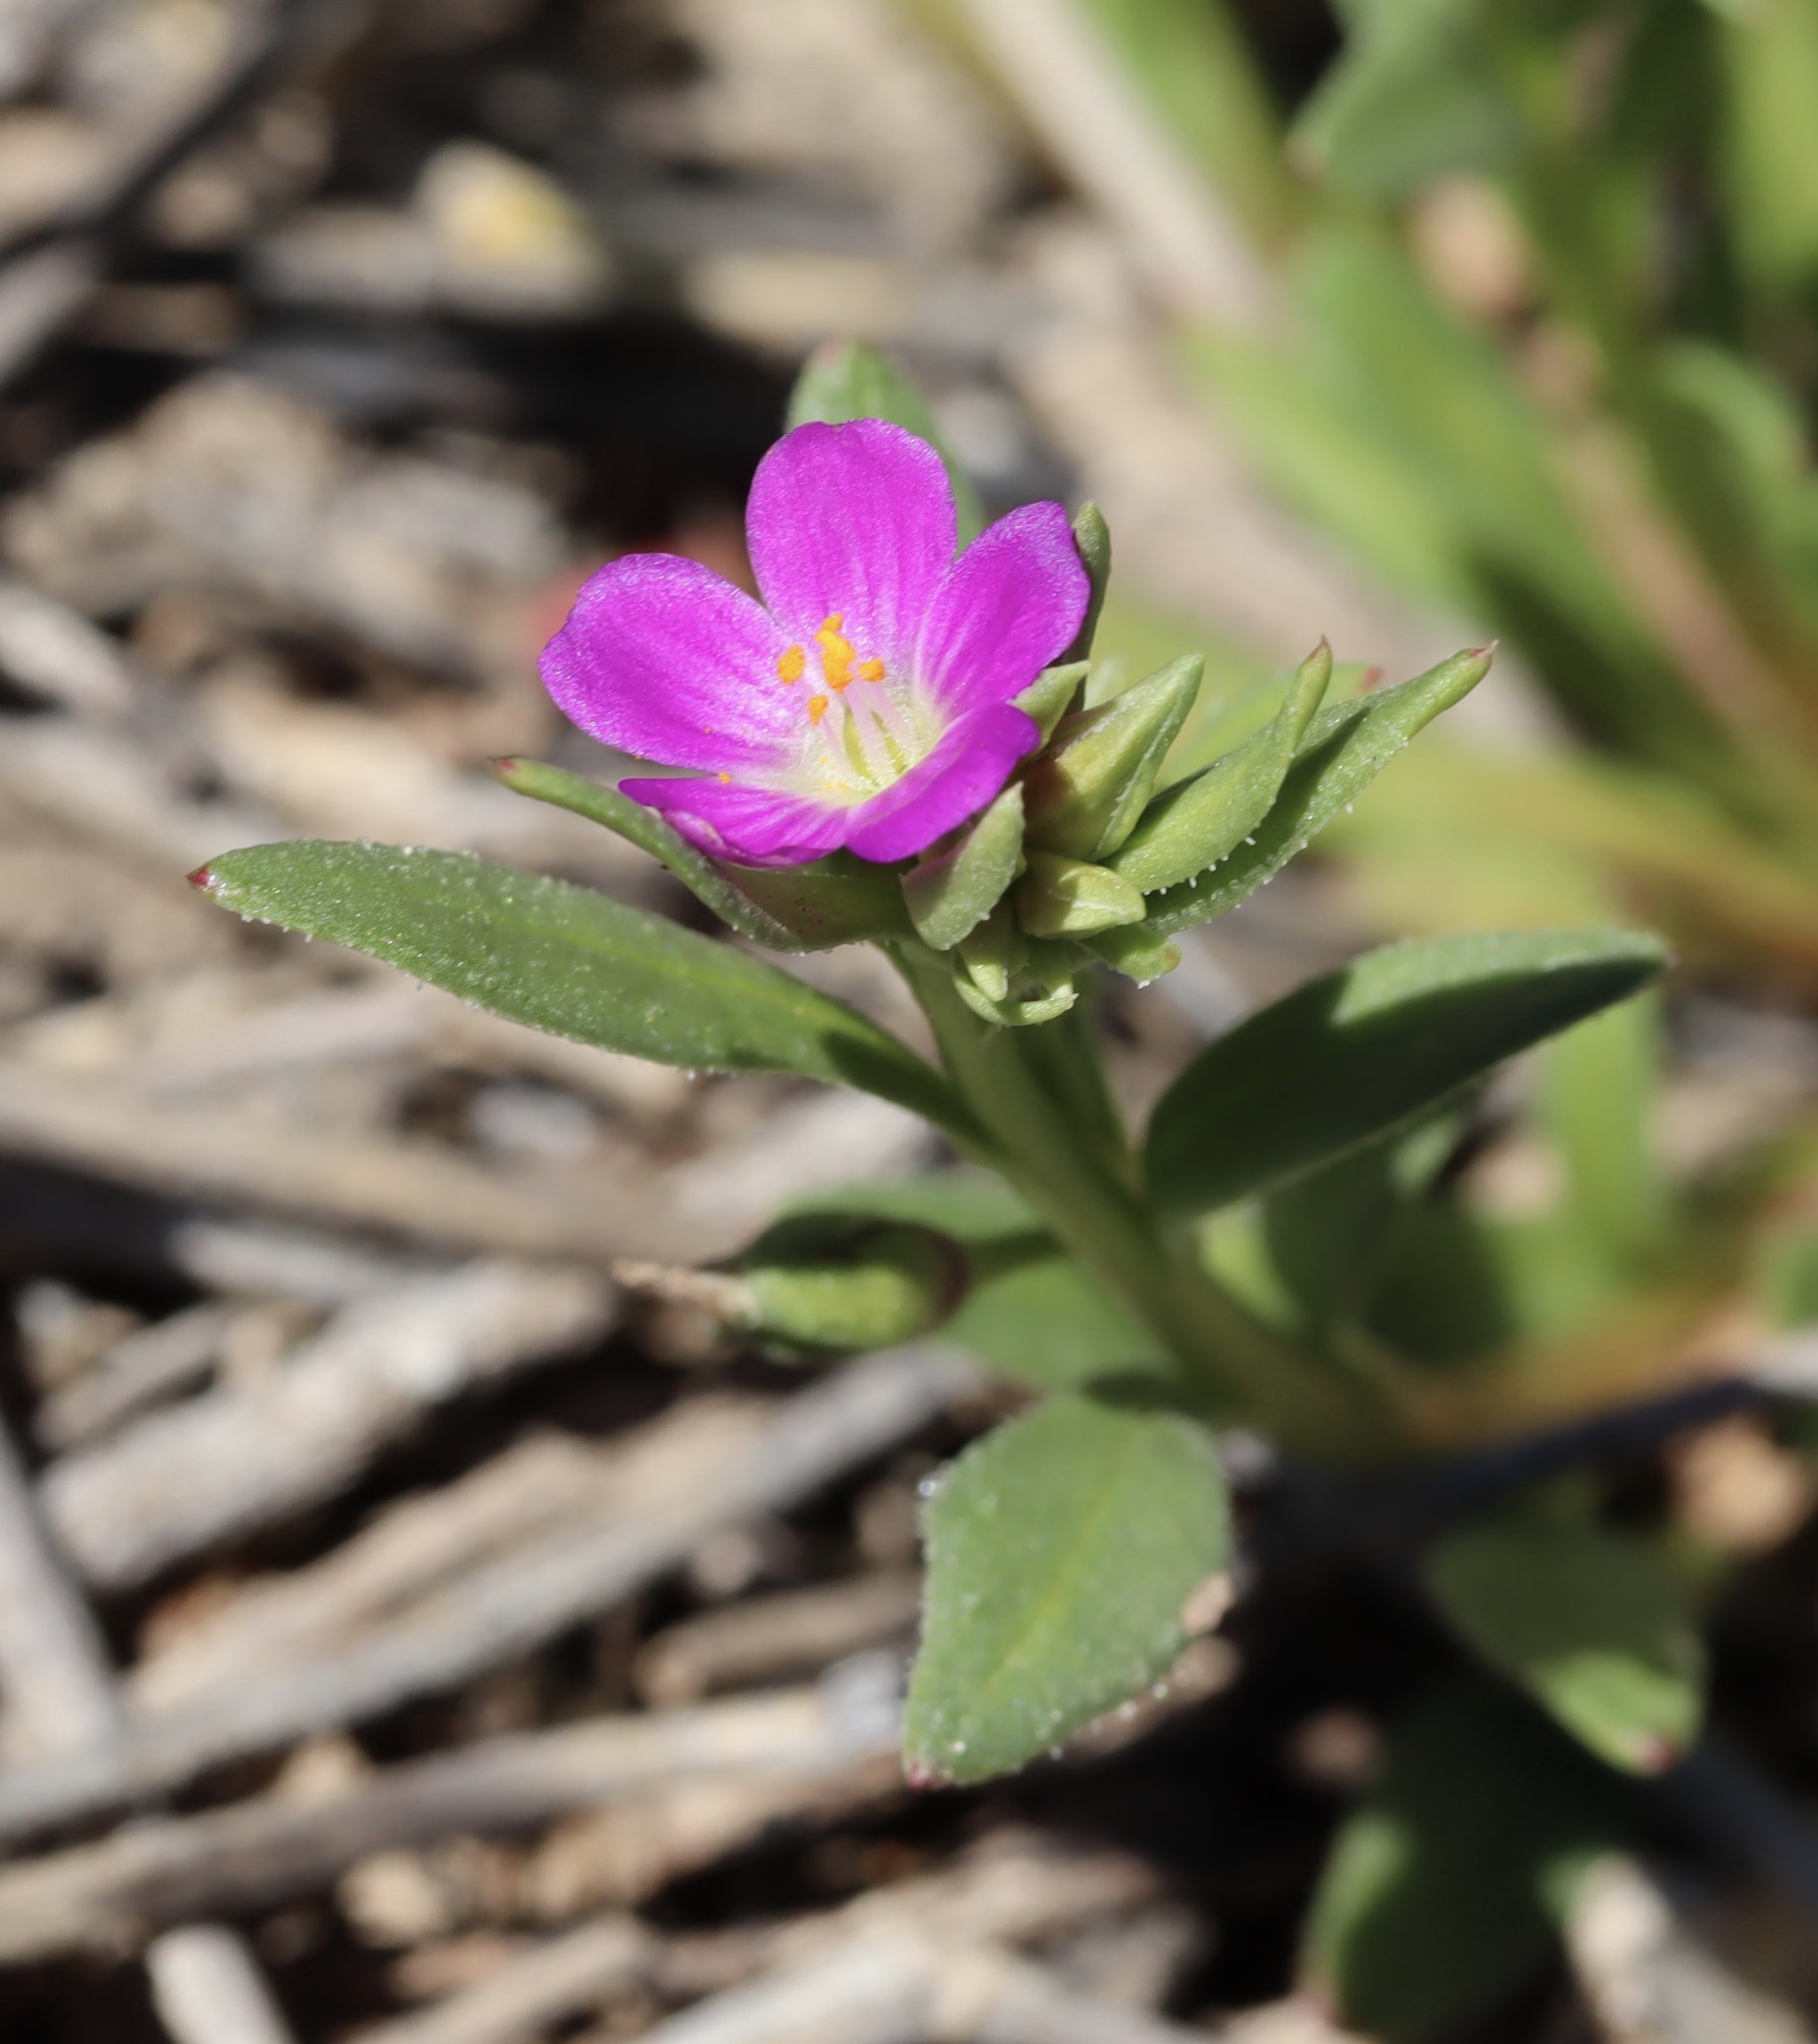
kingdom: Plantae
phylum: Tracheophyta
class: Magnoliopsida
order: Caryophyllales
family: Montiaceae
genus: Calandrinia
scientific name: Calandrinia menziesii
